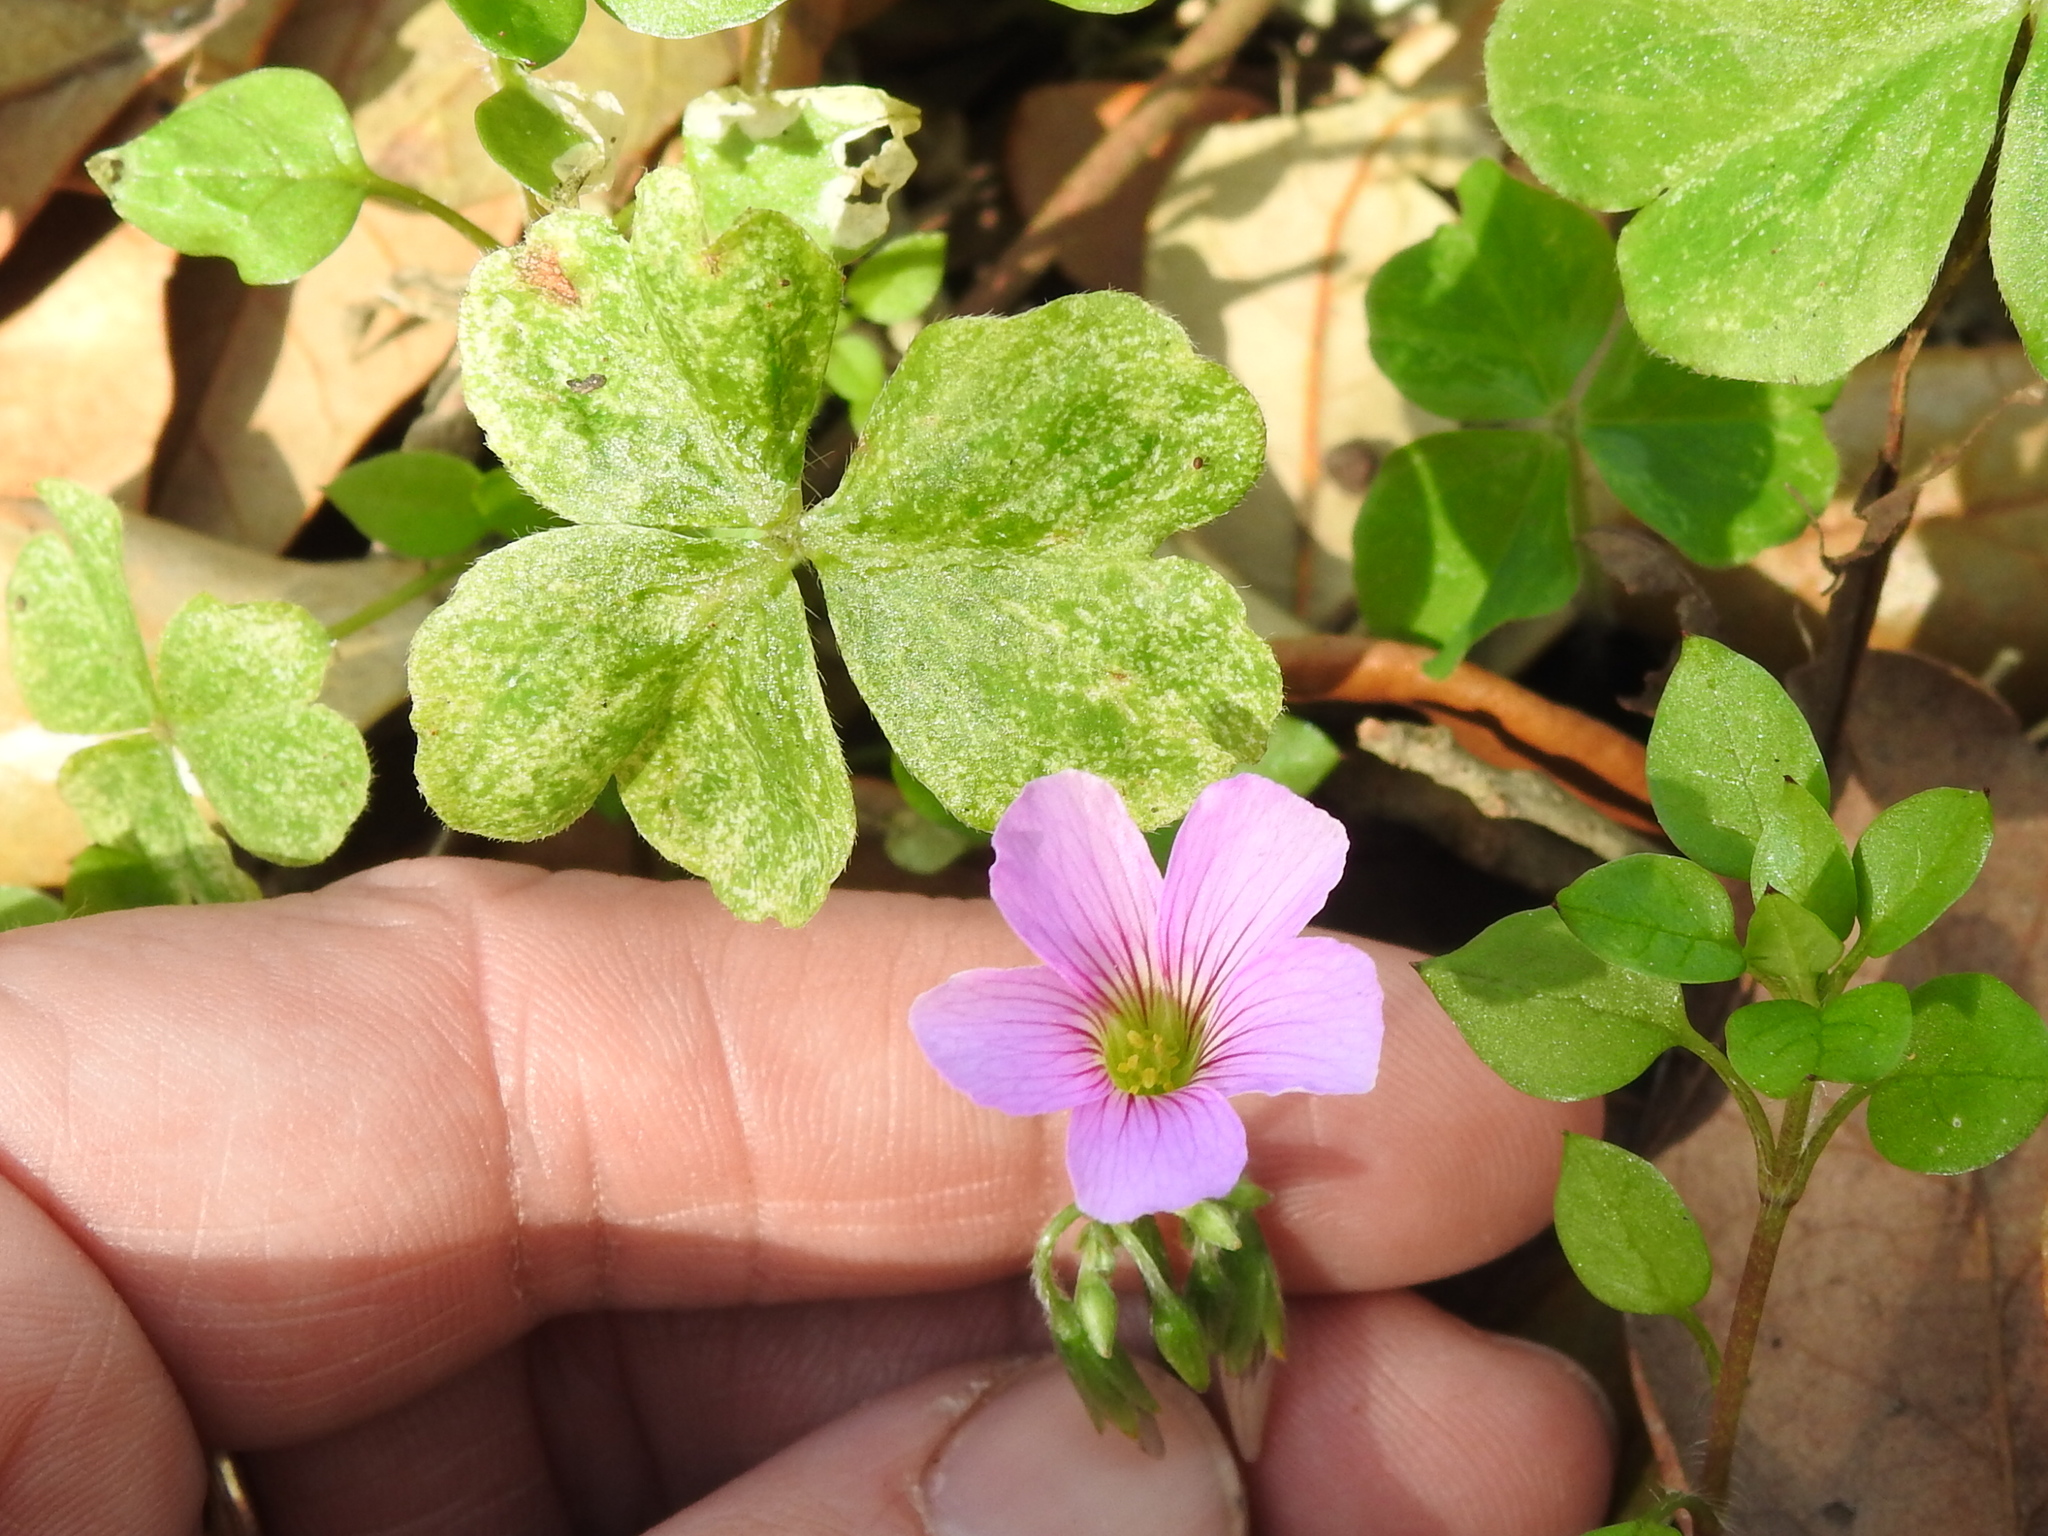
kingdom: Plantae
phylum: Tracheophyta
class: Magnoliopsida
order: Oxalidales
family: Oxalidaceae
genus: Oxalis
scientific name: Oxalis debilis
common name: Large-flowered pink-sorrel
